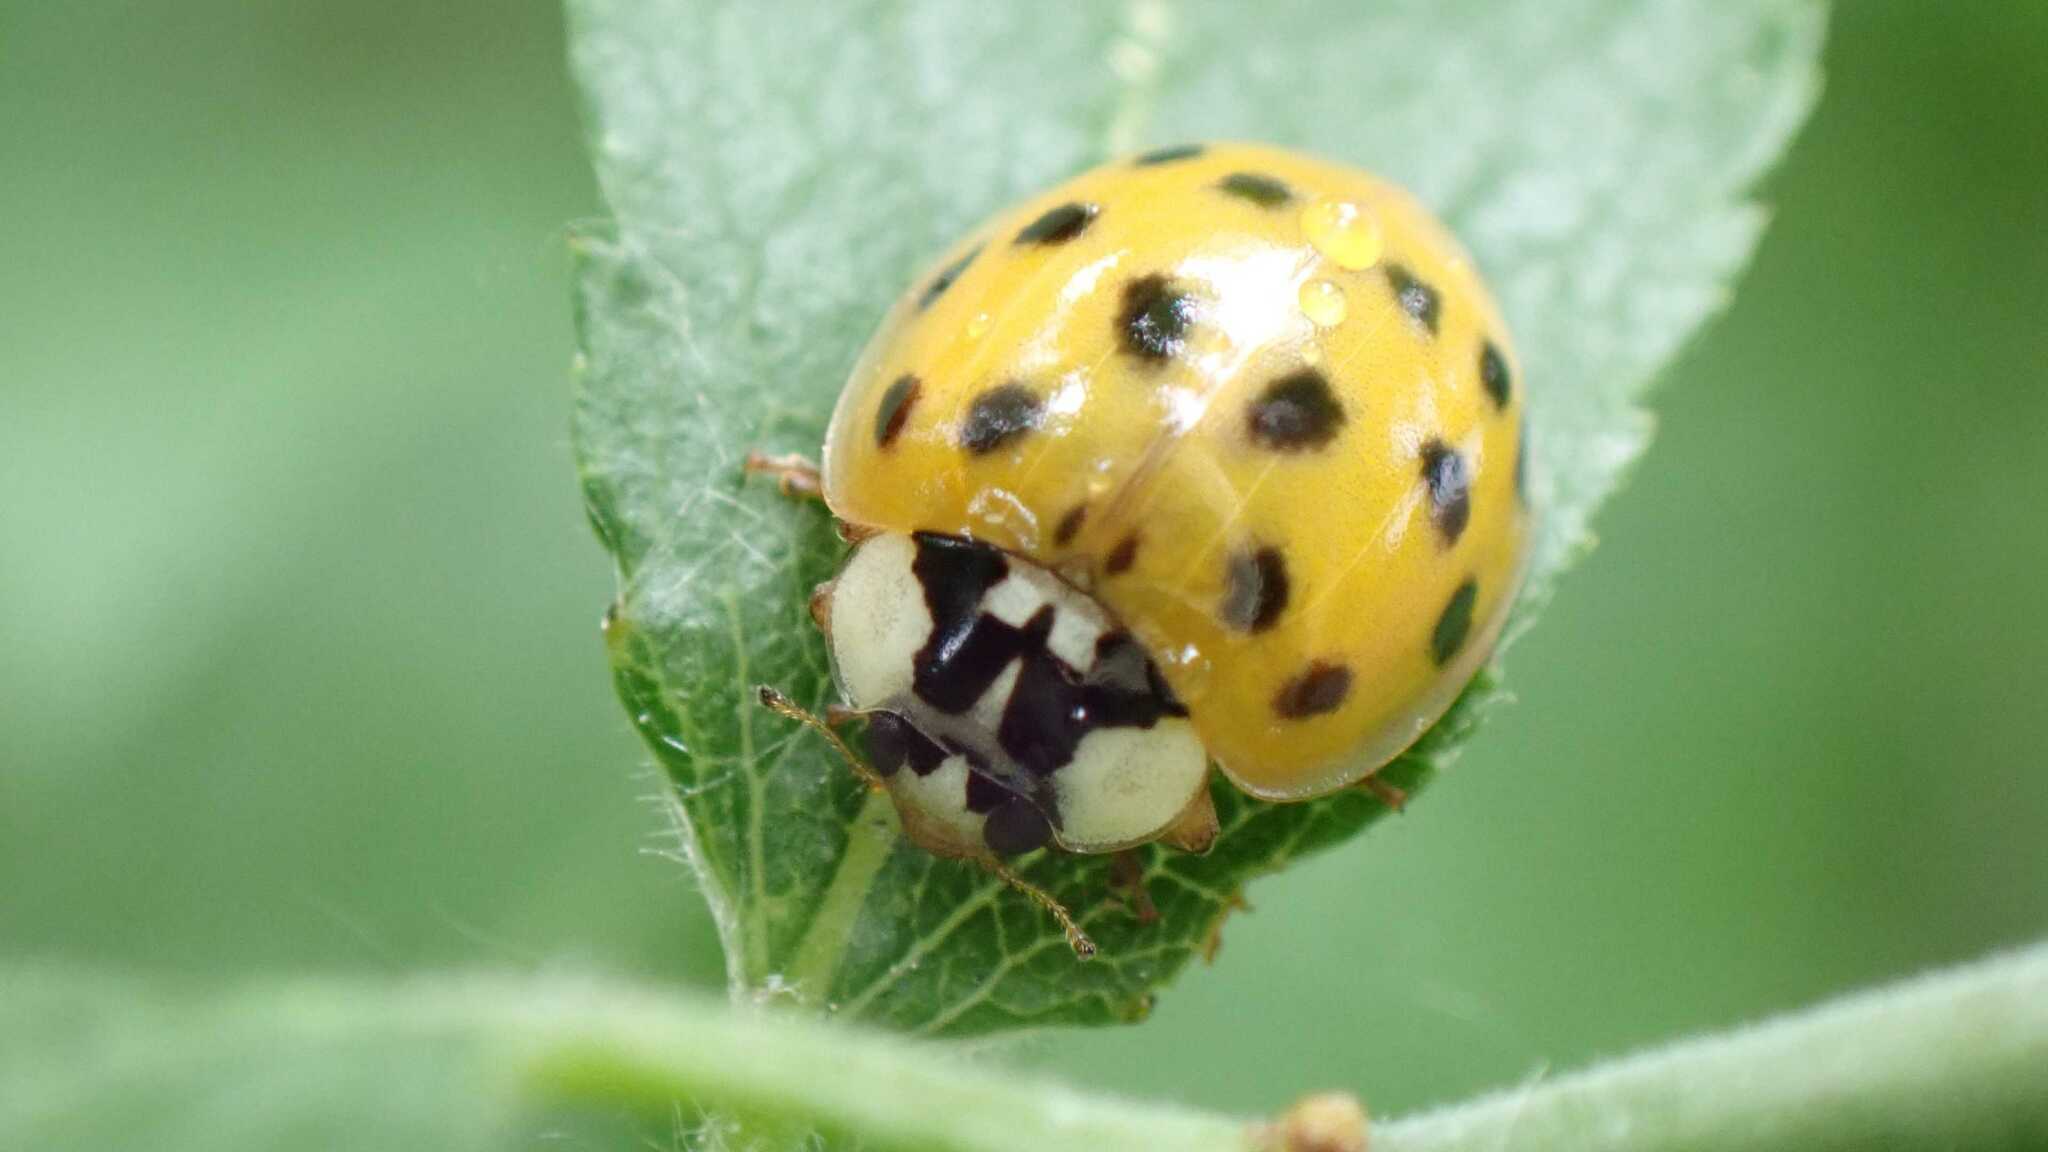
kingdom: Animalia
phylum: Arthropoda
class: Insecta
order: Coleoptera
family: Coccinellidae
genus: Harmonia
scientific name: Harmonia axyridis
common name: Harlequin ladybird
